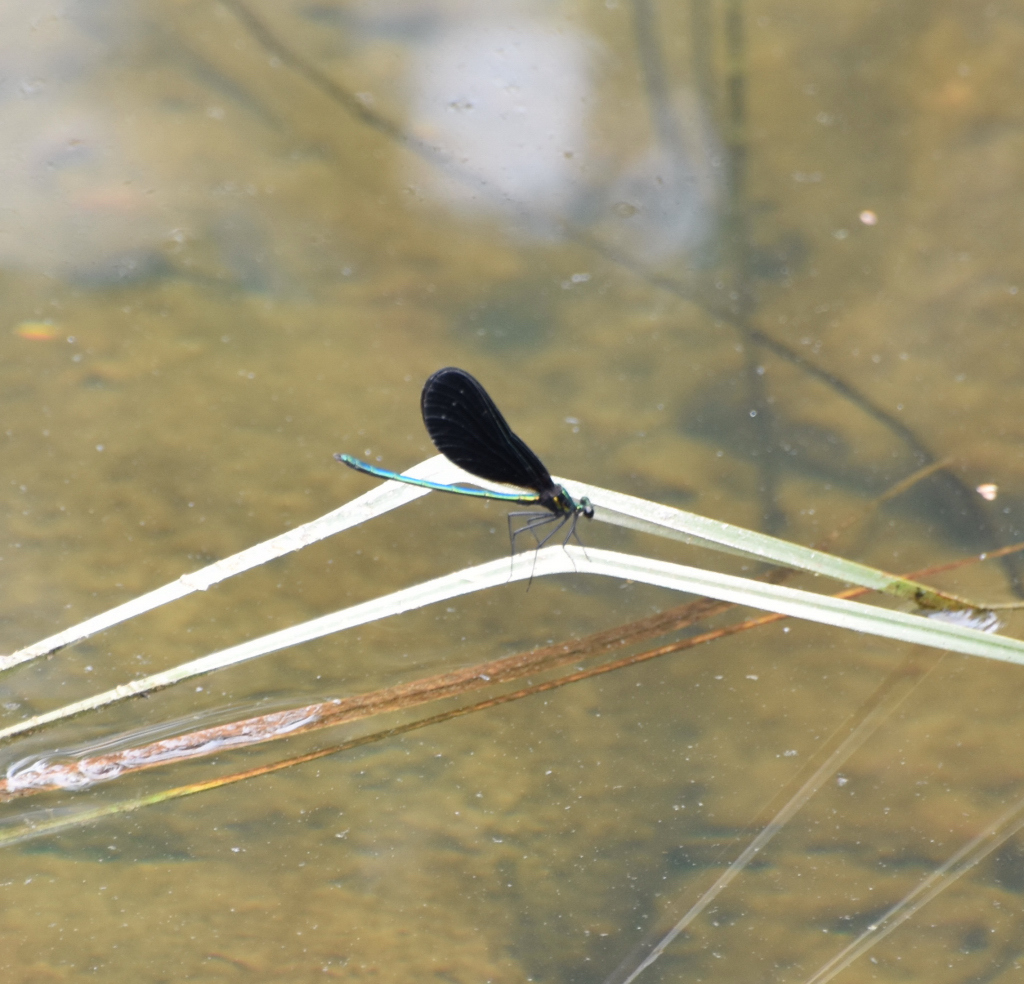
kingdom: Animalia
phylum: Arthropoda
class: Insecta
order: Odonata
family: Calopterygidae
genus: Calopteryx
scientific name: Calopteryx maculata
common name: Ebony jewelwing
